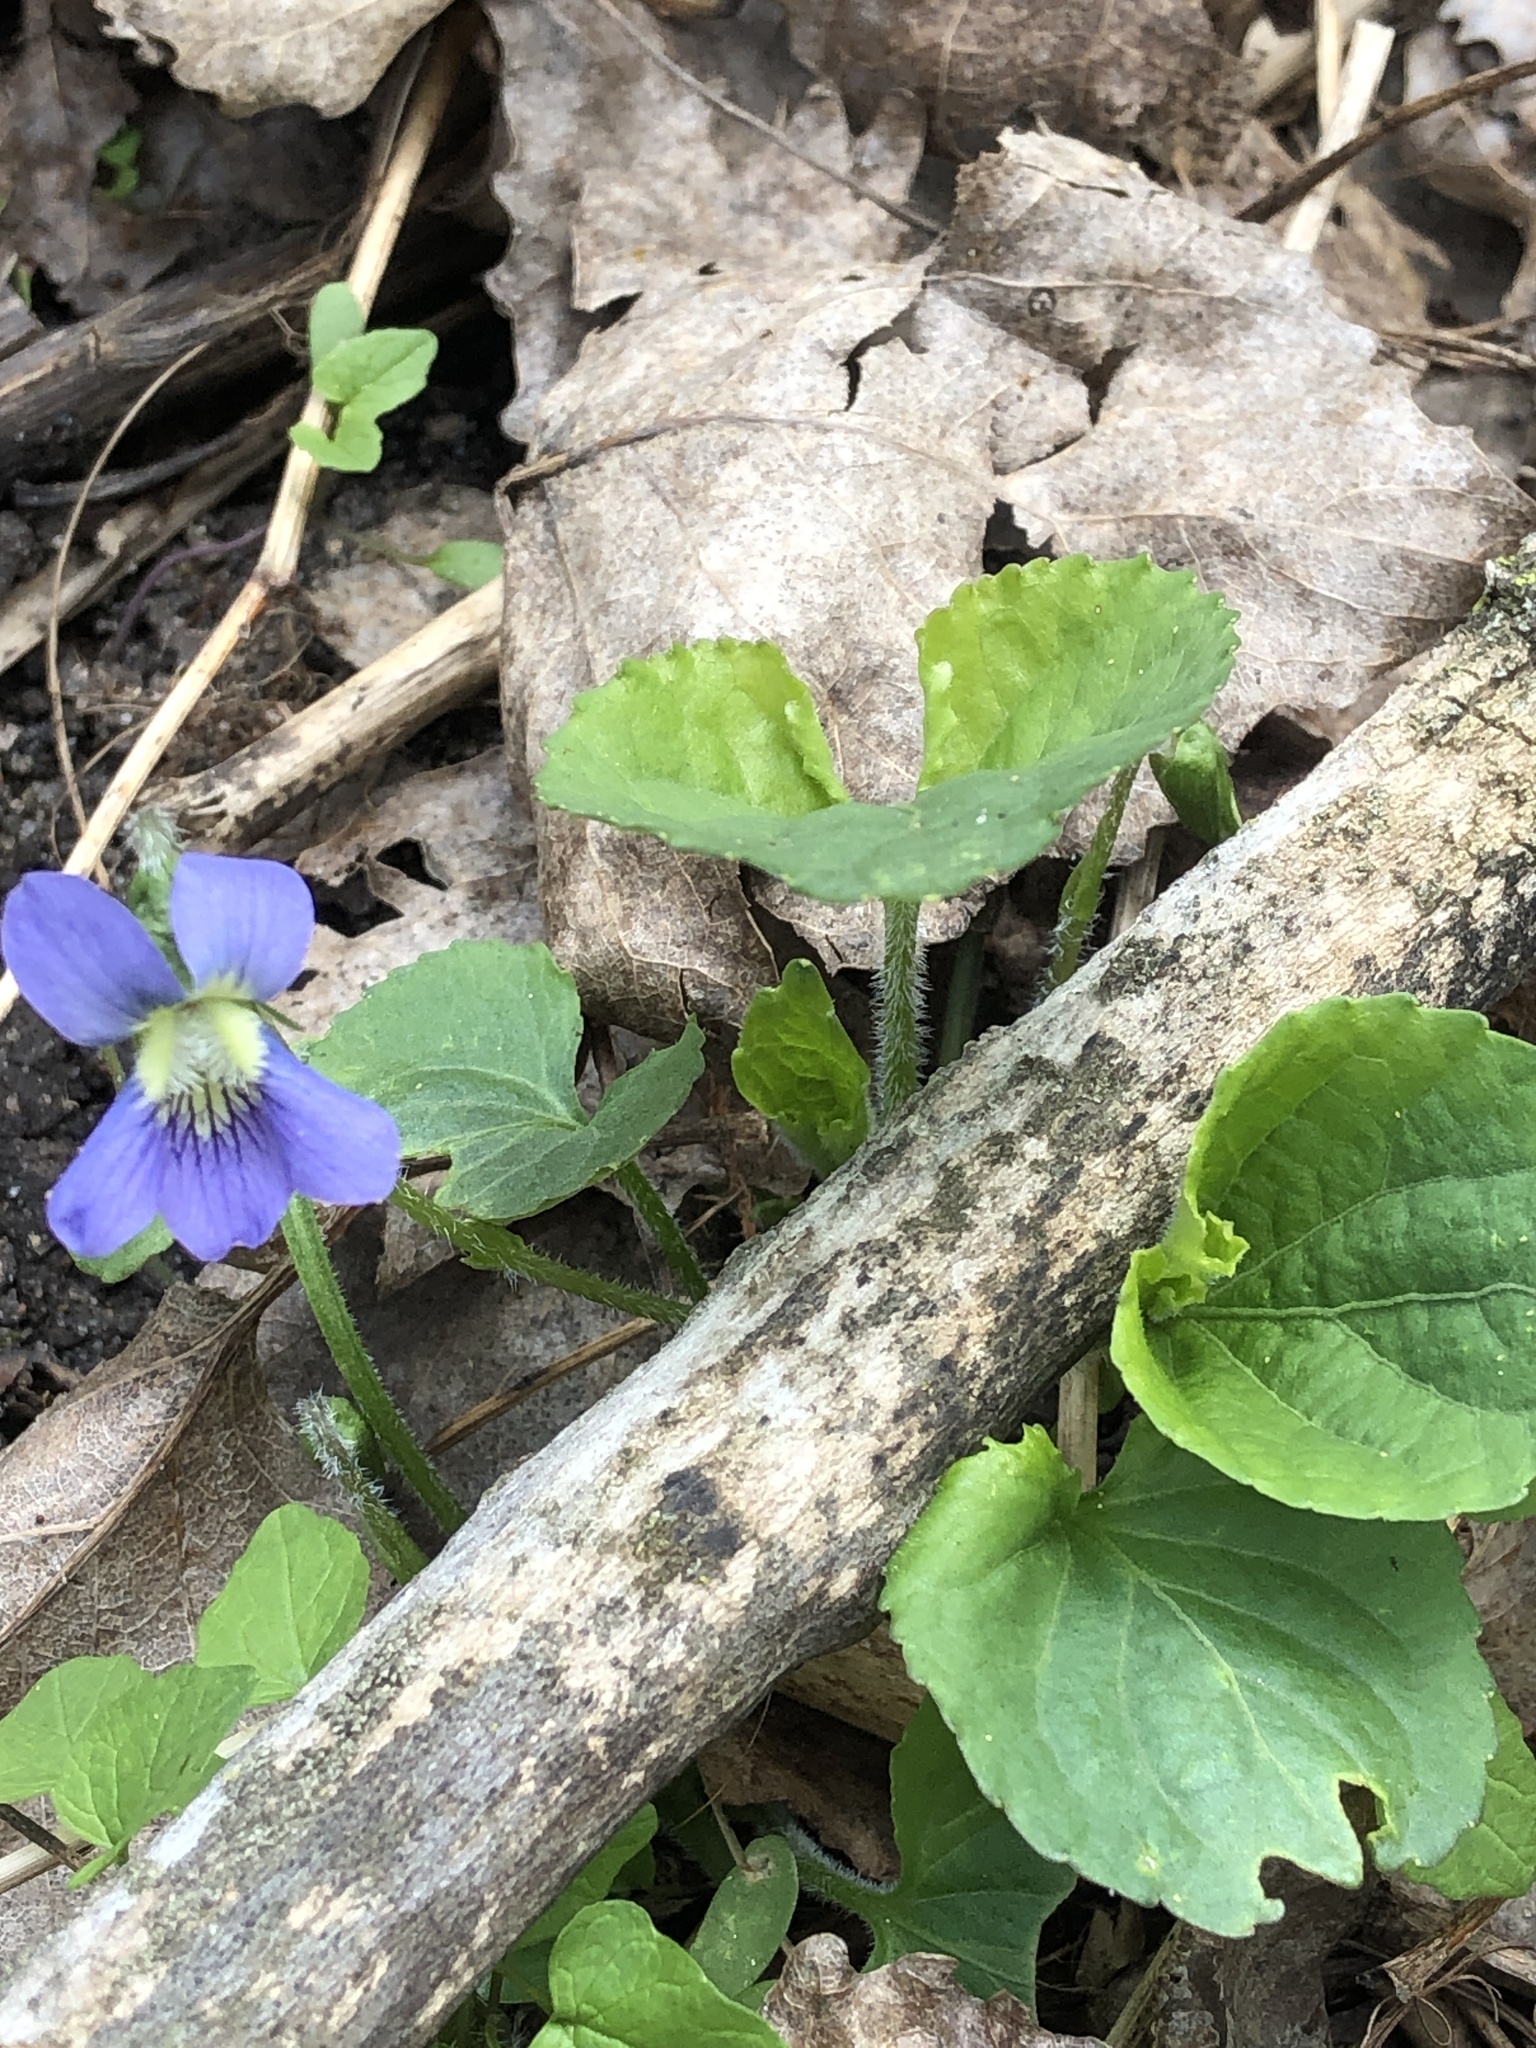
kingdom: Plantae
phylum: Tracheophyta
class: Magnoliopsida
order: Malpighiales
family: Violaceae
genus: Viola
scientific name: Viola sororia
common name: Dooryard violet
